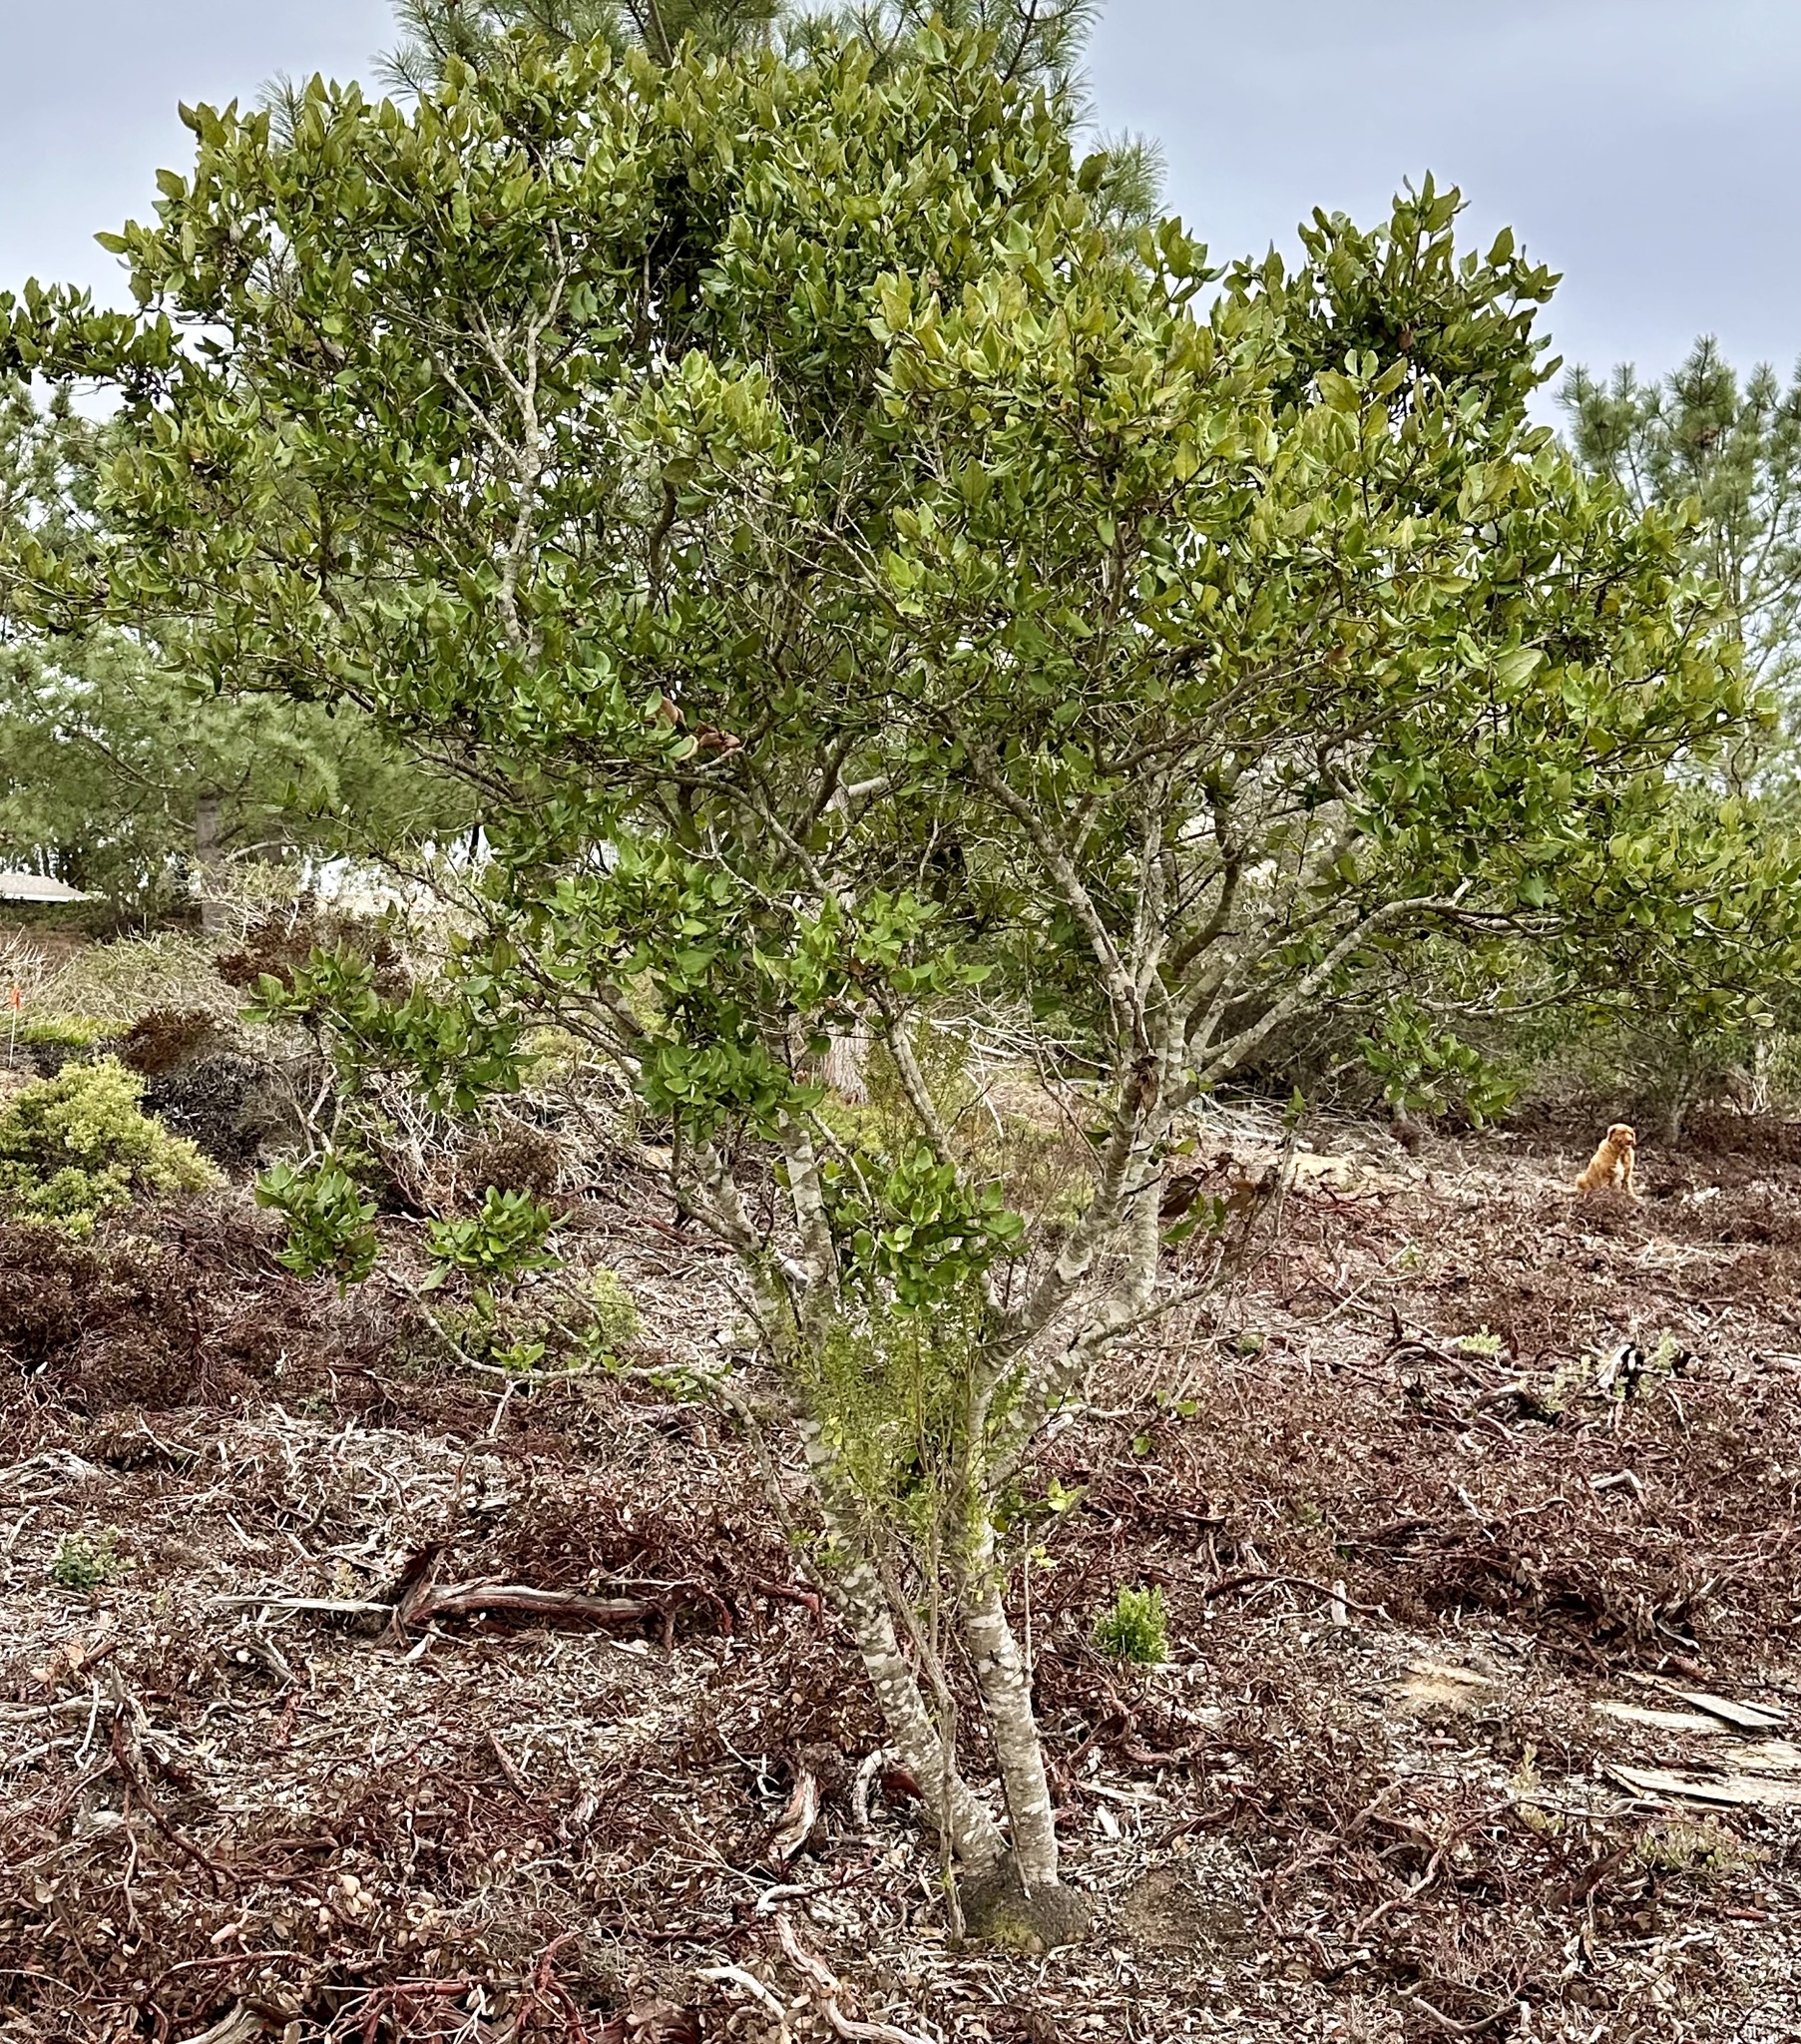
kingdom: Plantae
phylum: Tracheophyta
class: Magnoliopsida
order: Garryales
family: Garryaceae
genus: Garrya
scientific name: Garrya elliptica
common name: Silk-tassel
